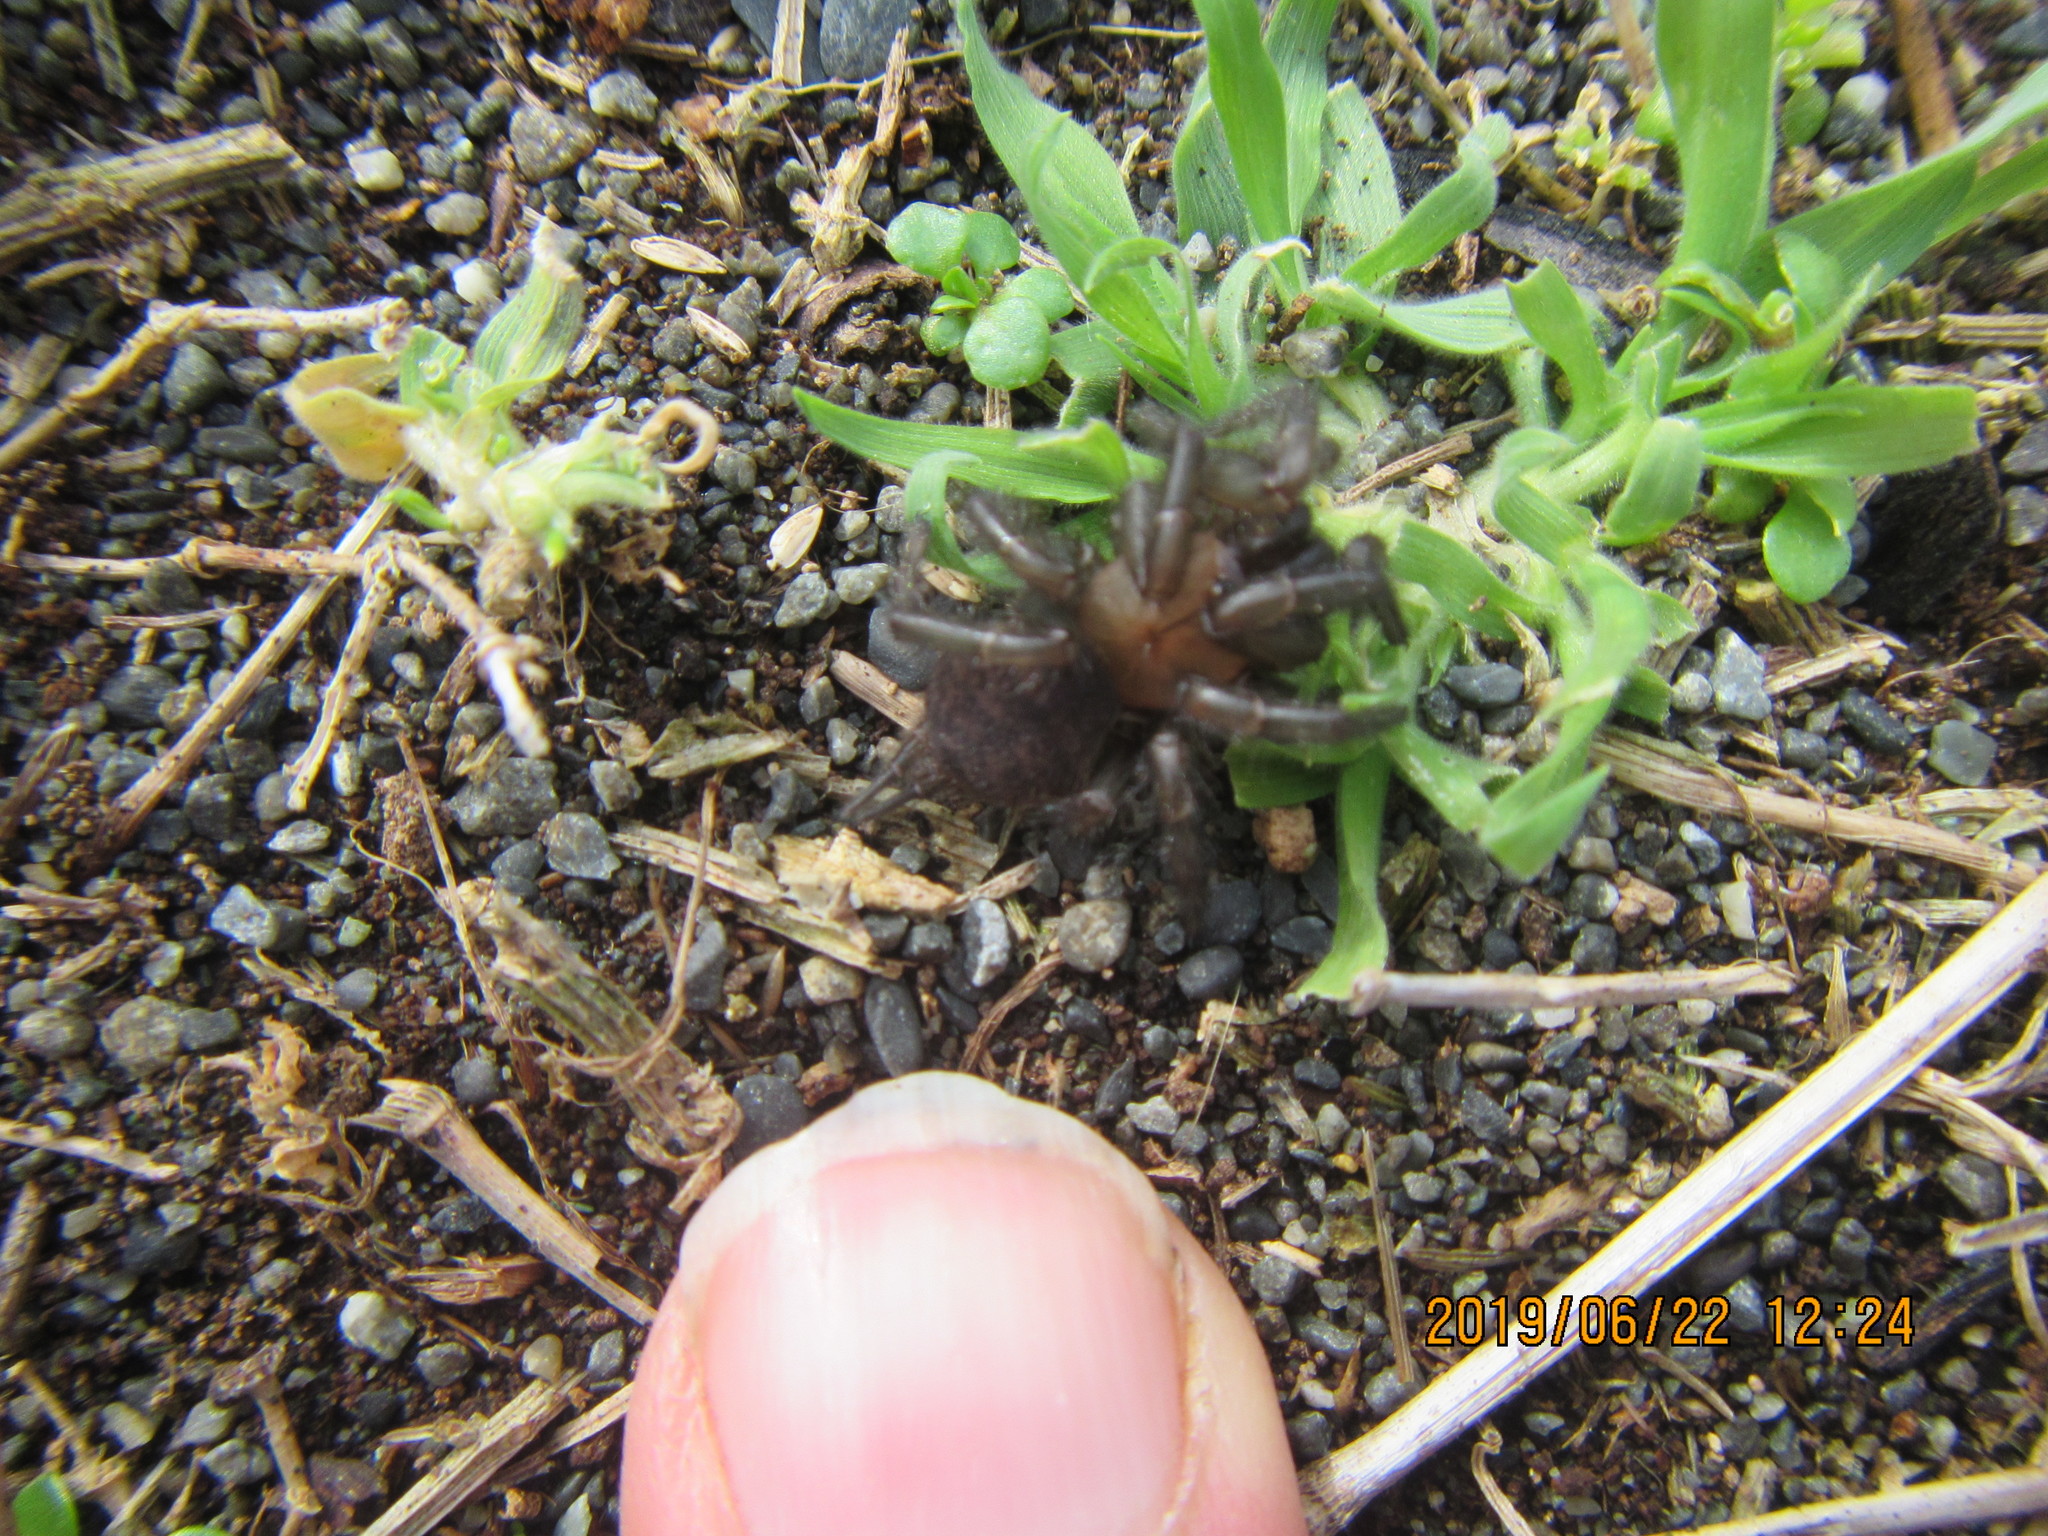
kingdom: Animalia
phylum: Arthropoda
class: Arachnida
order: Araneae
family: Porrhothelidae
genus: Porrhothele
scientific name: Porrhothele antipodiana
